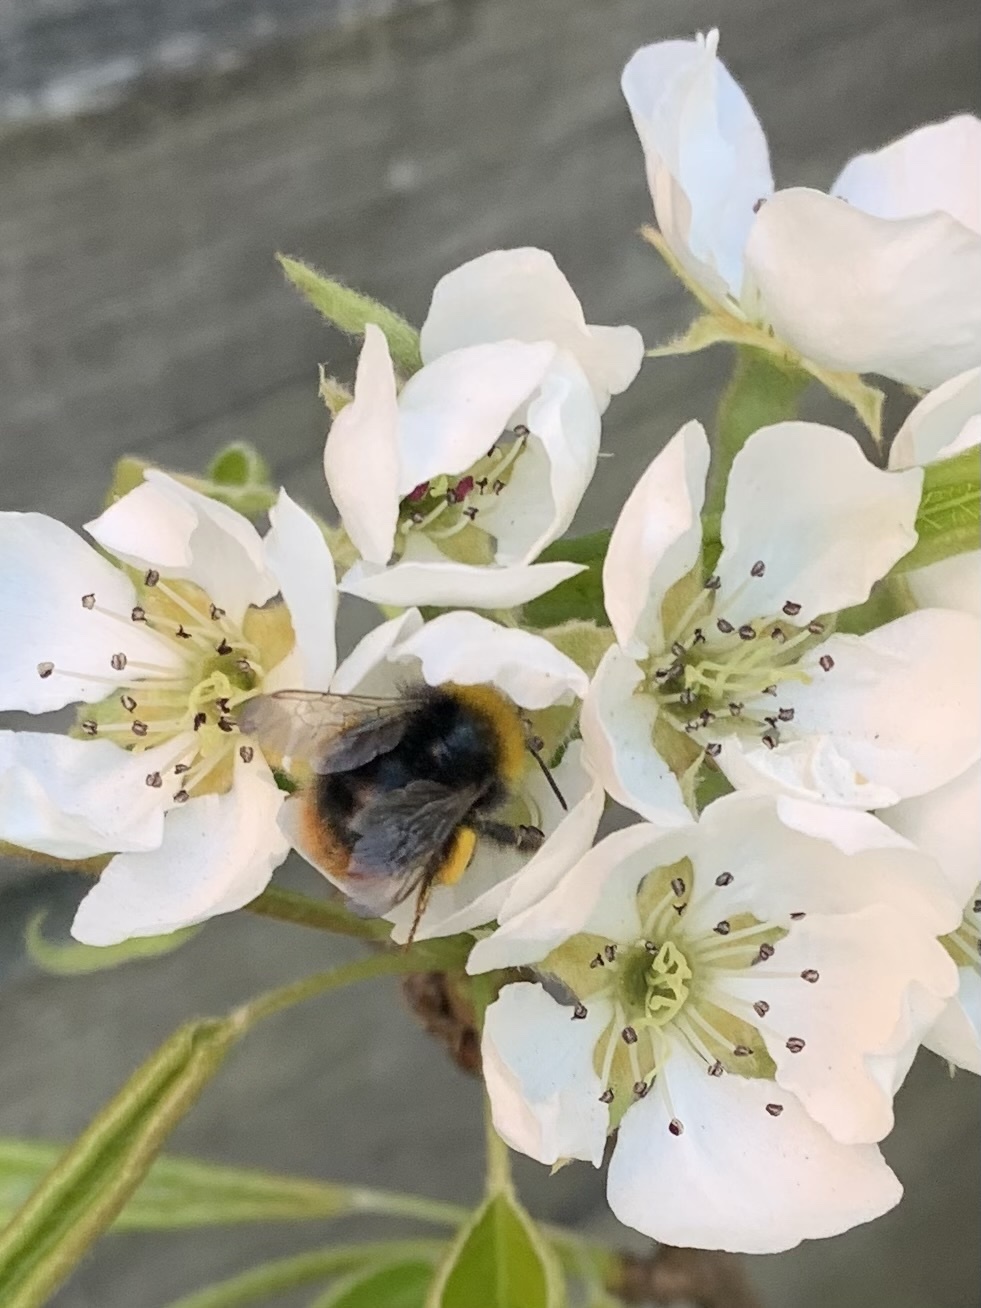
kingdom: Animalia
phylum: Arthropoda
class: Insecta
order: Hymenoptera
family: Apidae
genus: Bombus
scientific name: Bombus pratorum
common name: Early humble-bee
